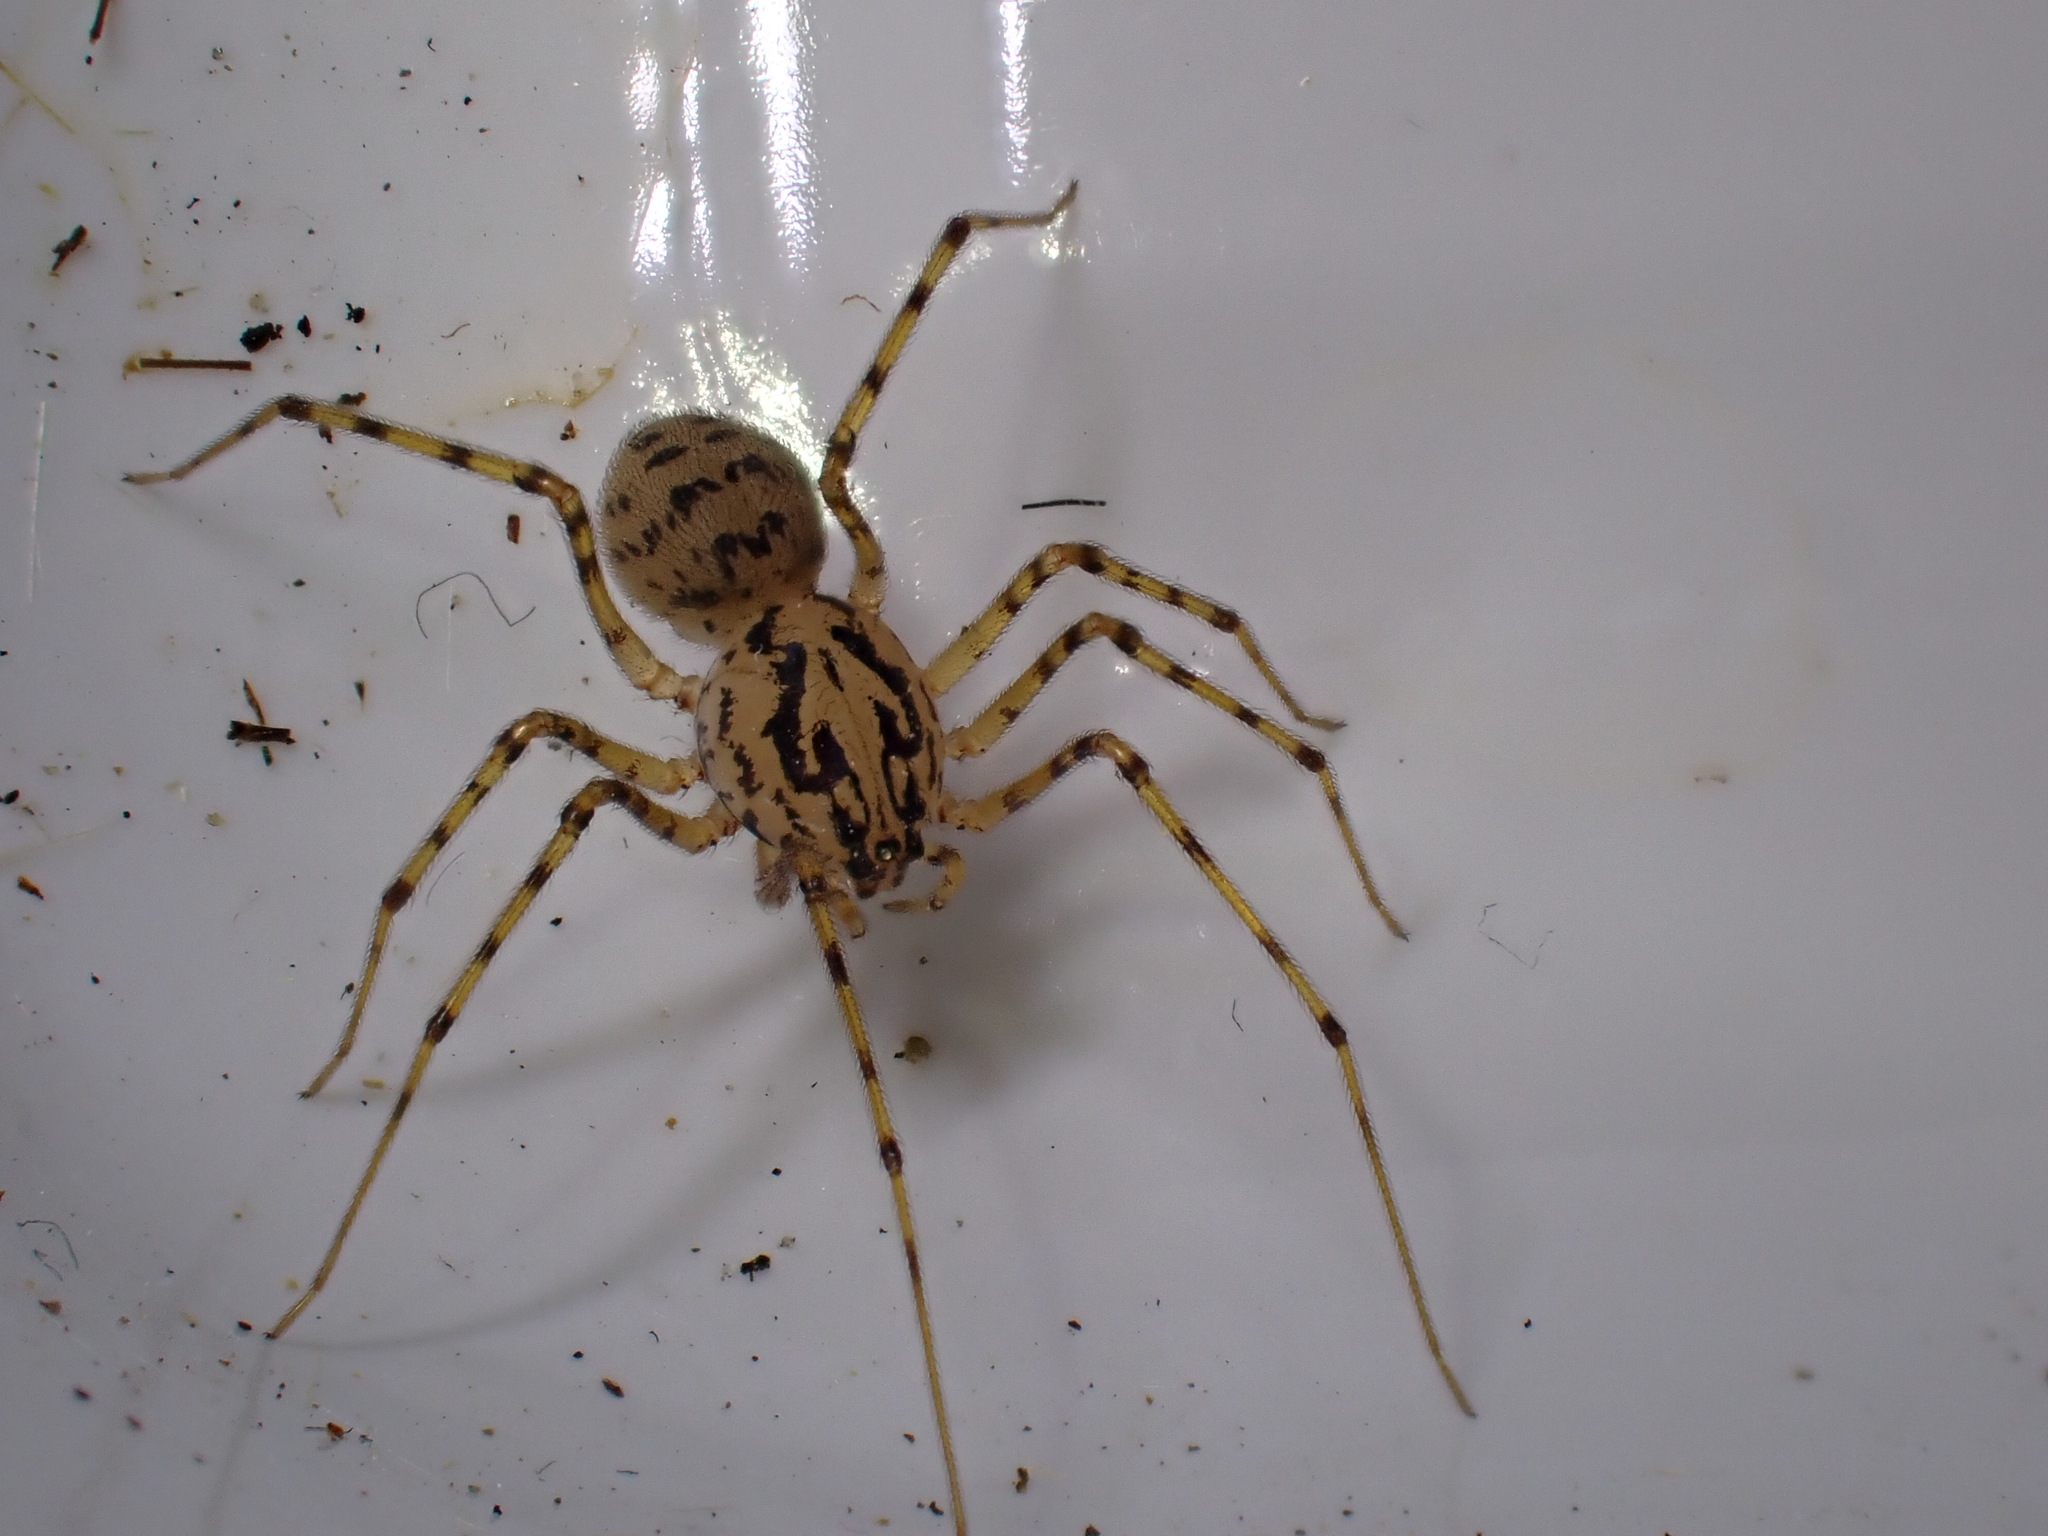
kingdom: Animalia
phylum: Arthropoda
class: Arachnida
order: Araneae
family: Scytodidae
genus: Scytodes
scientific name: Scytodes thoracica
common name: Spitting spider
